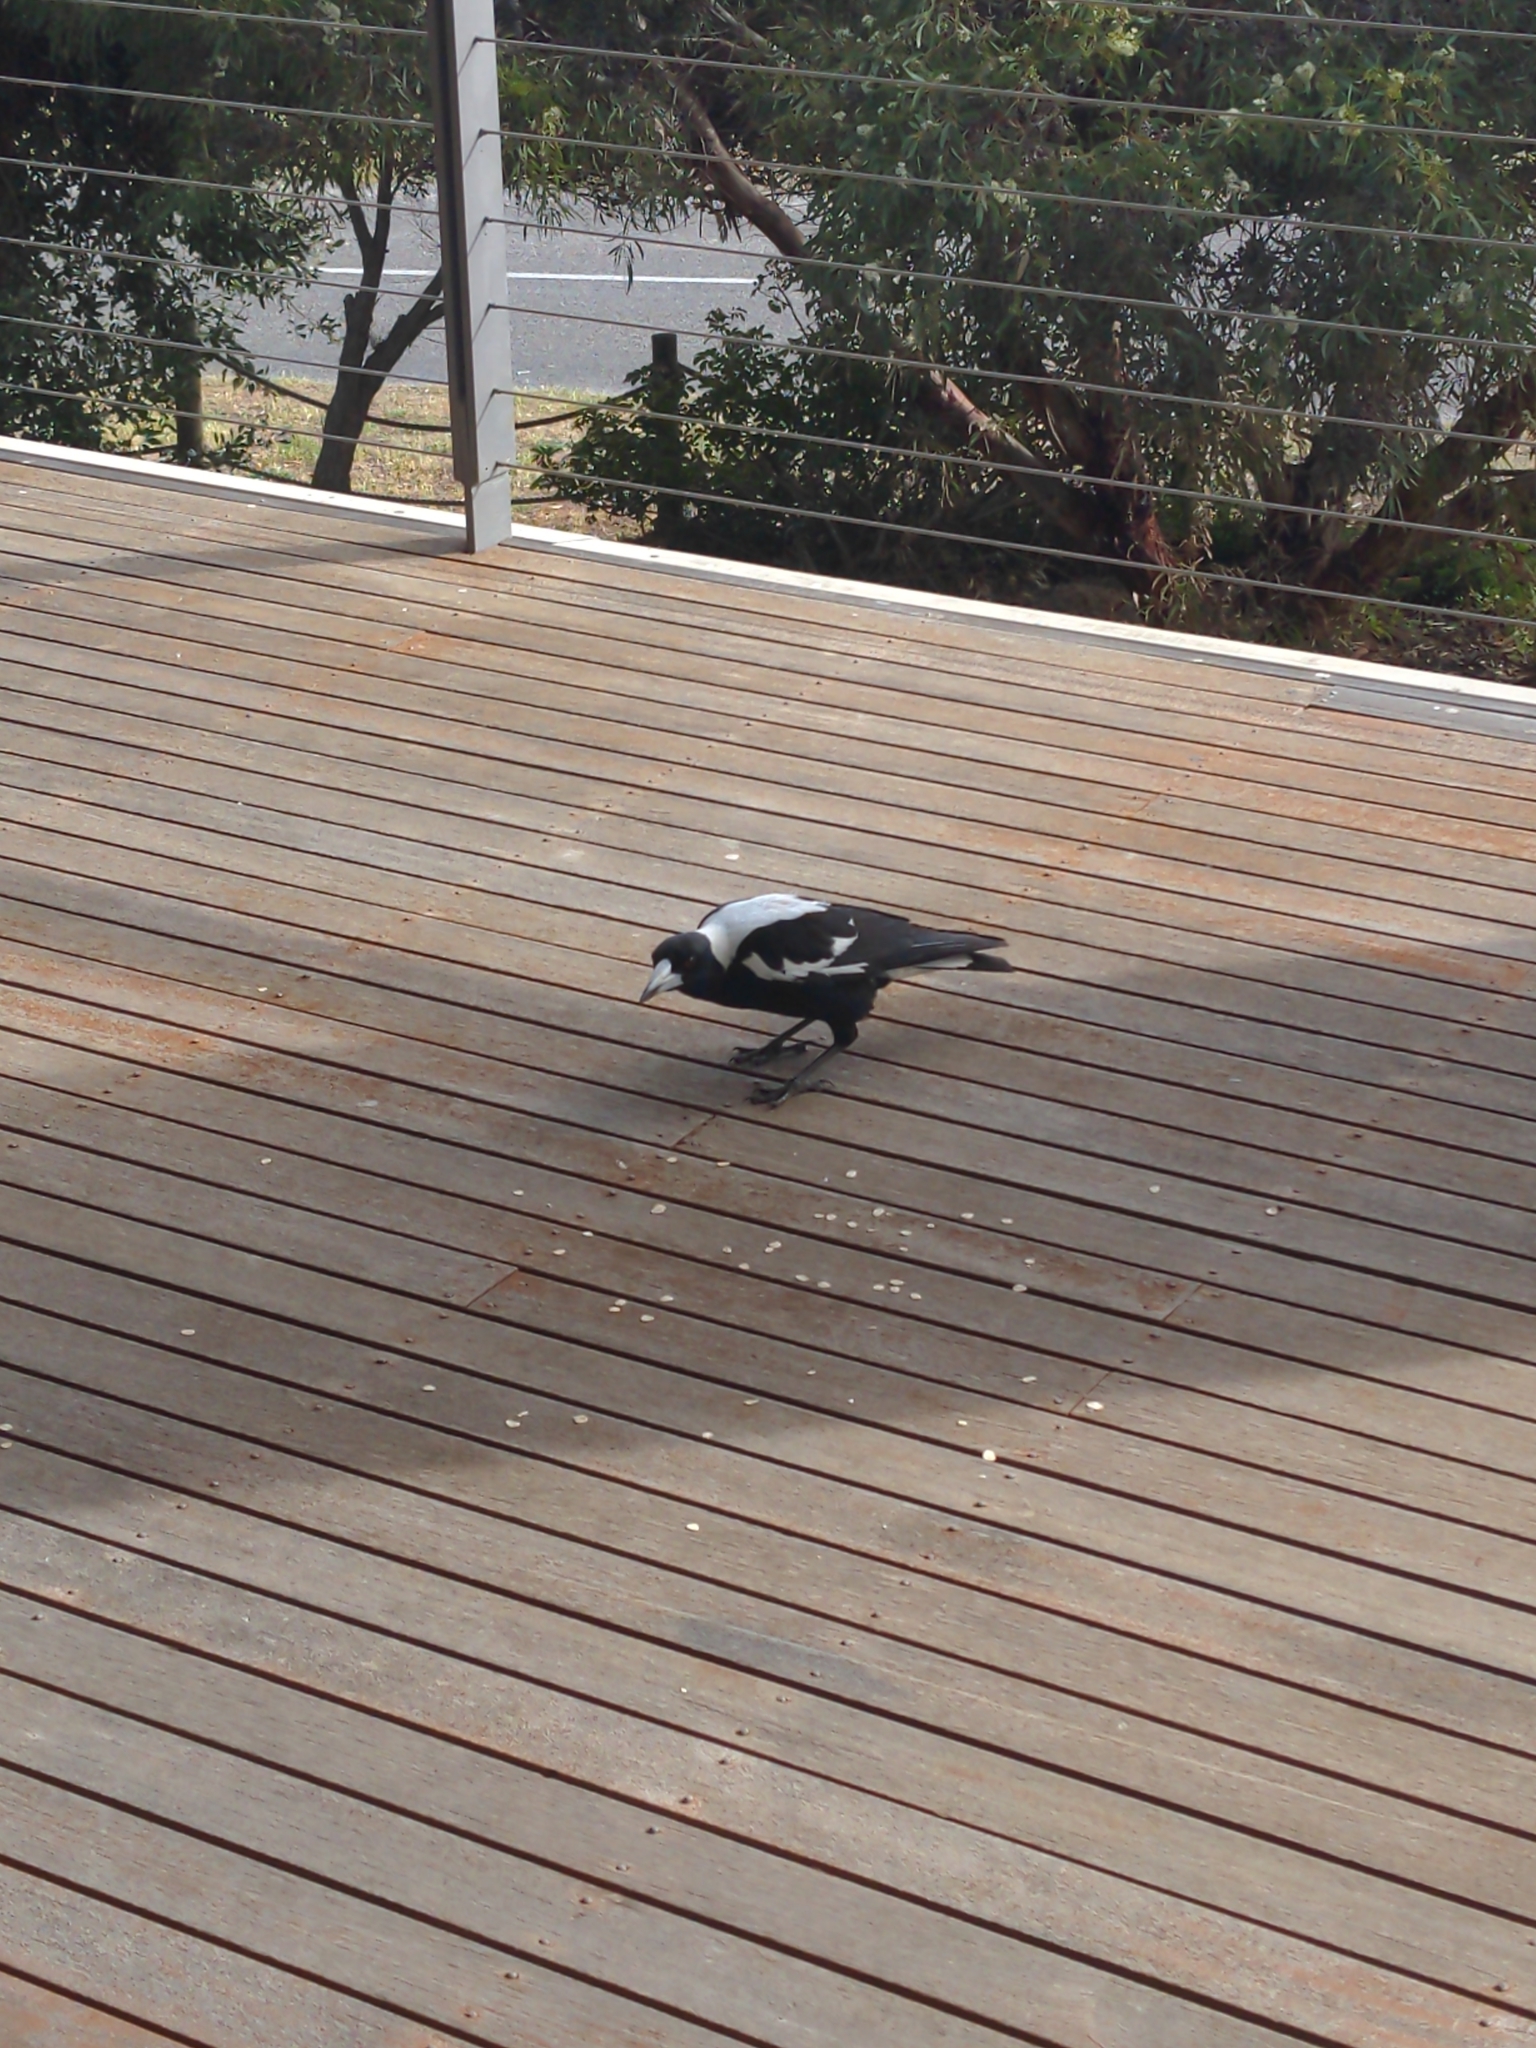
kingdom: Animalia
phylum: Chordata
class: Aves
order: Passeriformes
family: Cracticidae
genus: Gymnorhina
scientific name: Gymnorhina tibicen
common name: Australian magpie
